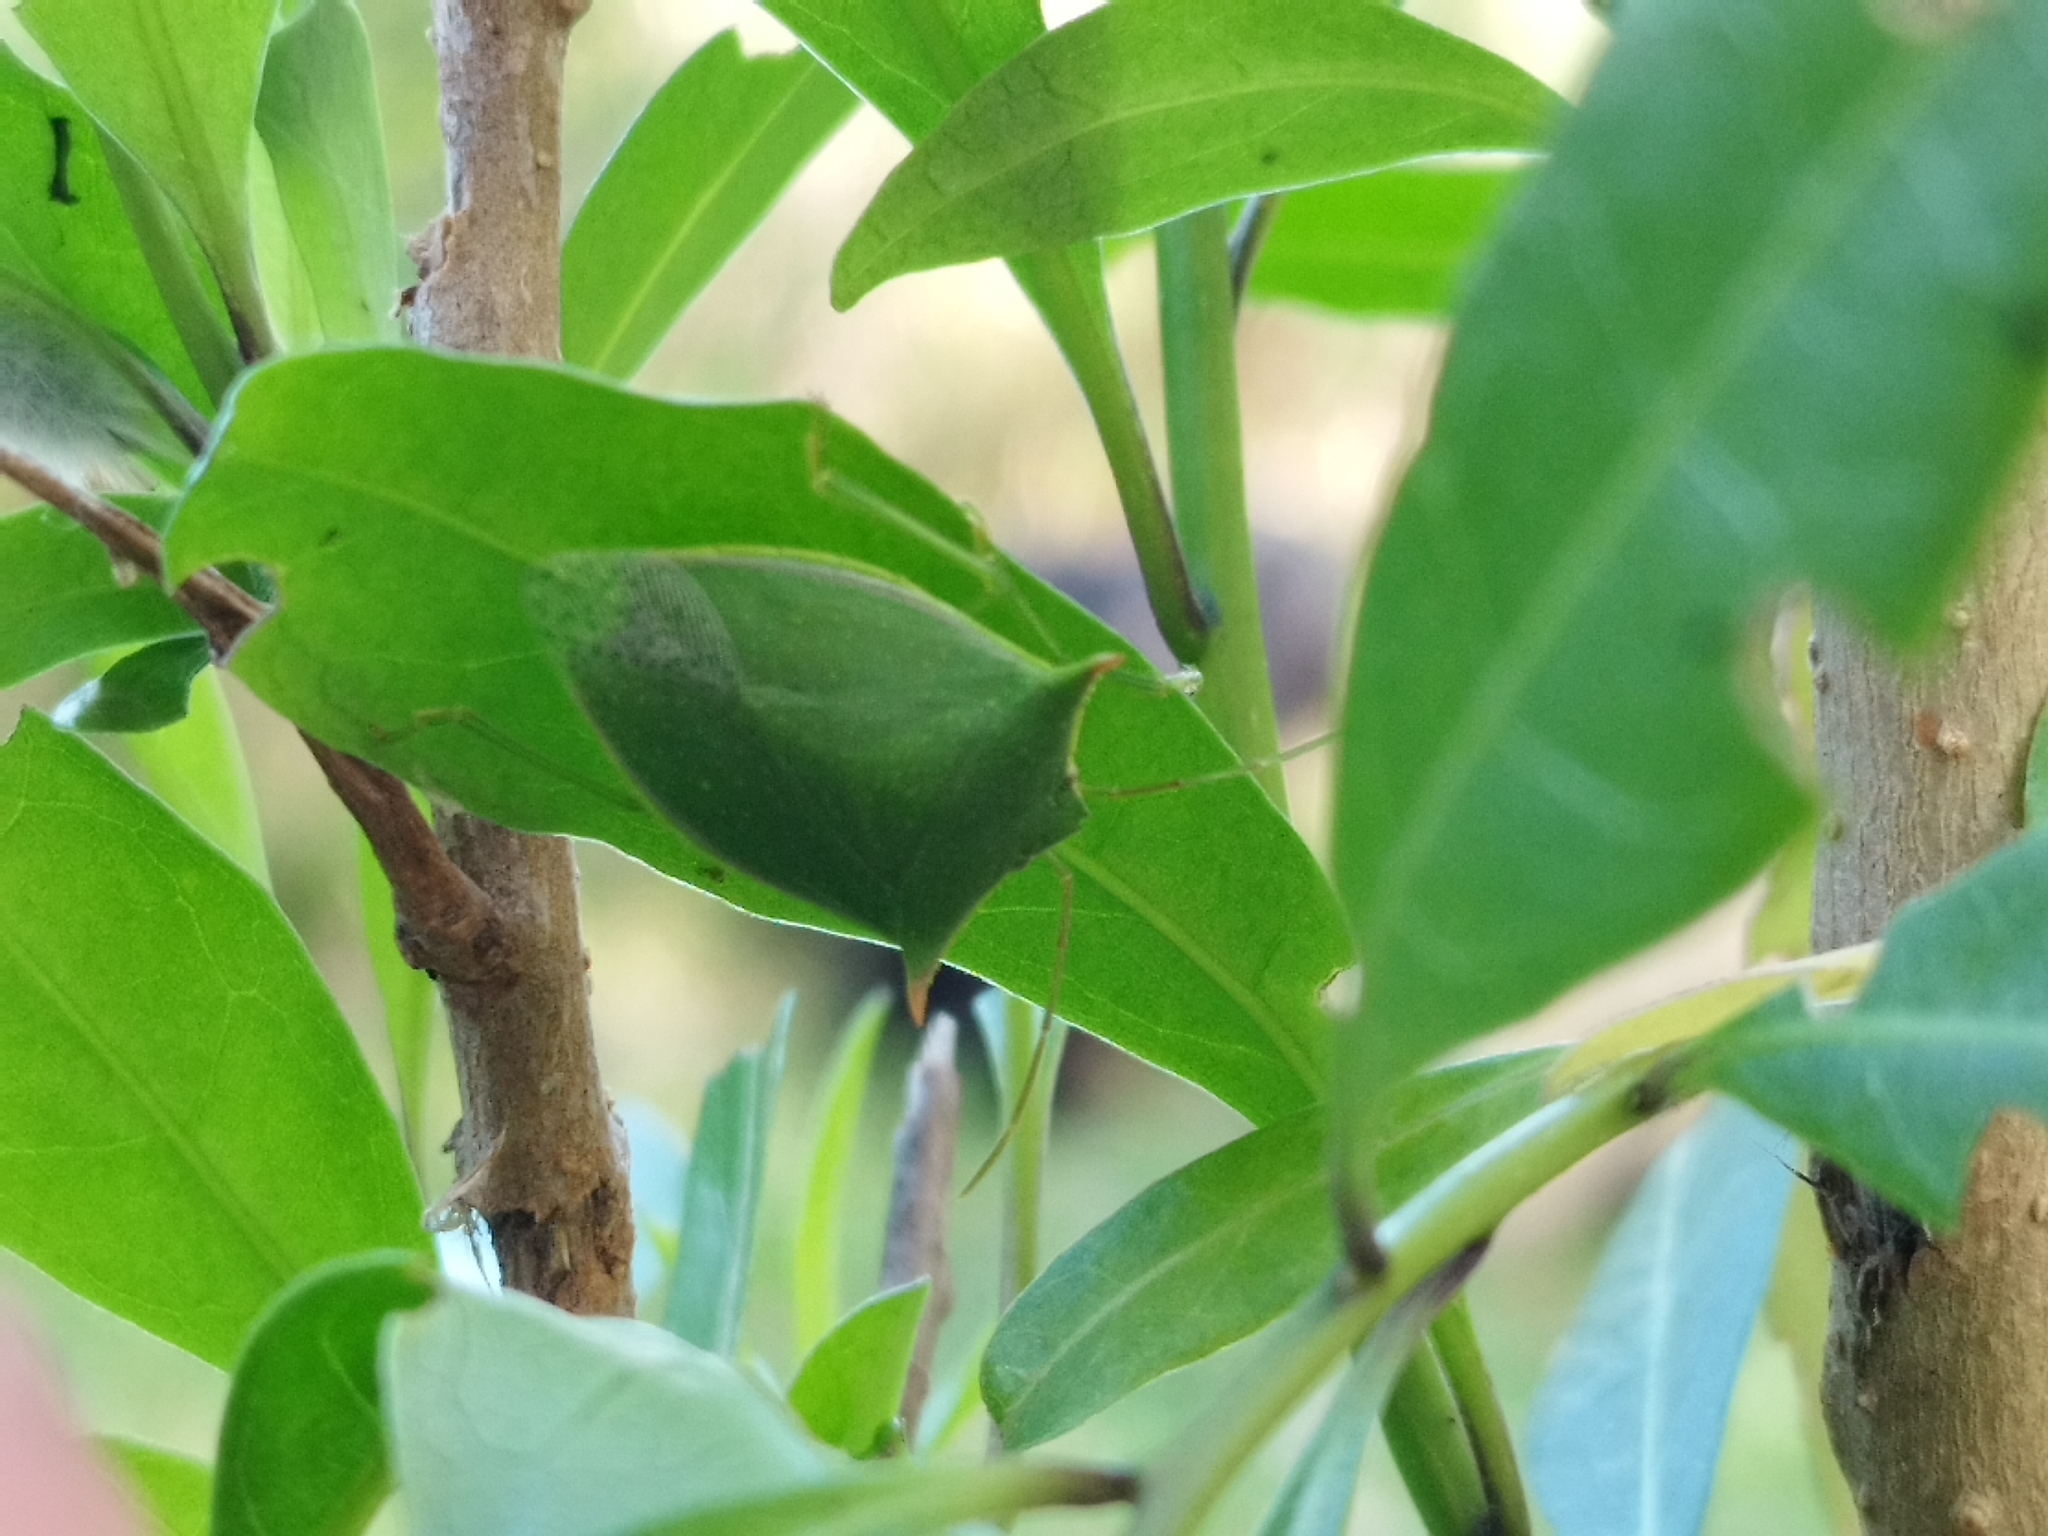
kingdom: Animalia
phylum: Arthropoda
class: Insecta
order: Hemiptera
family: Pentatomidae
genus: Loxa
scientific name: Loxa deducta
